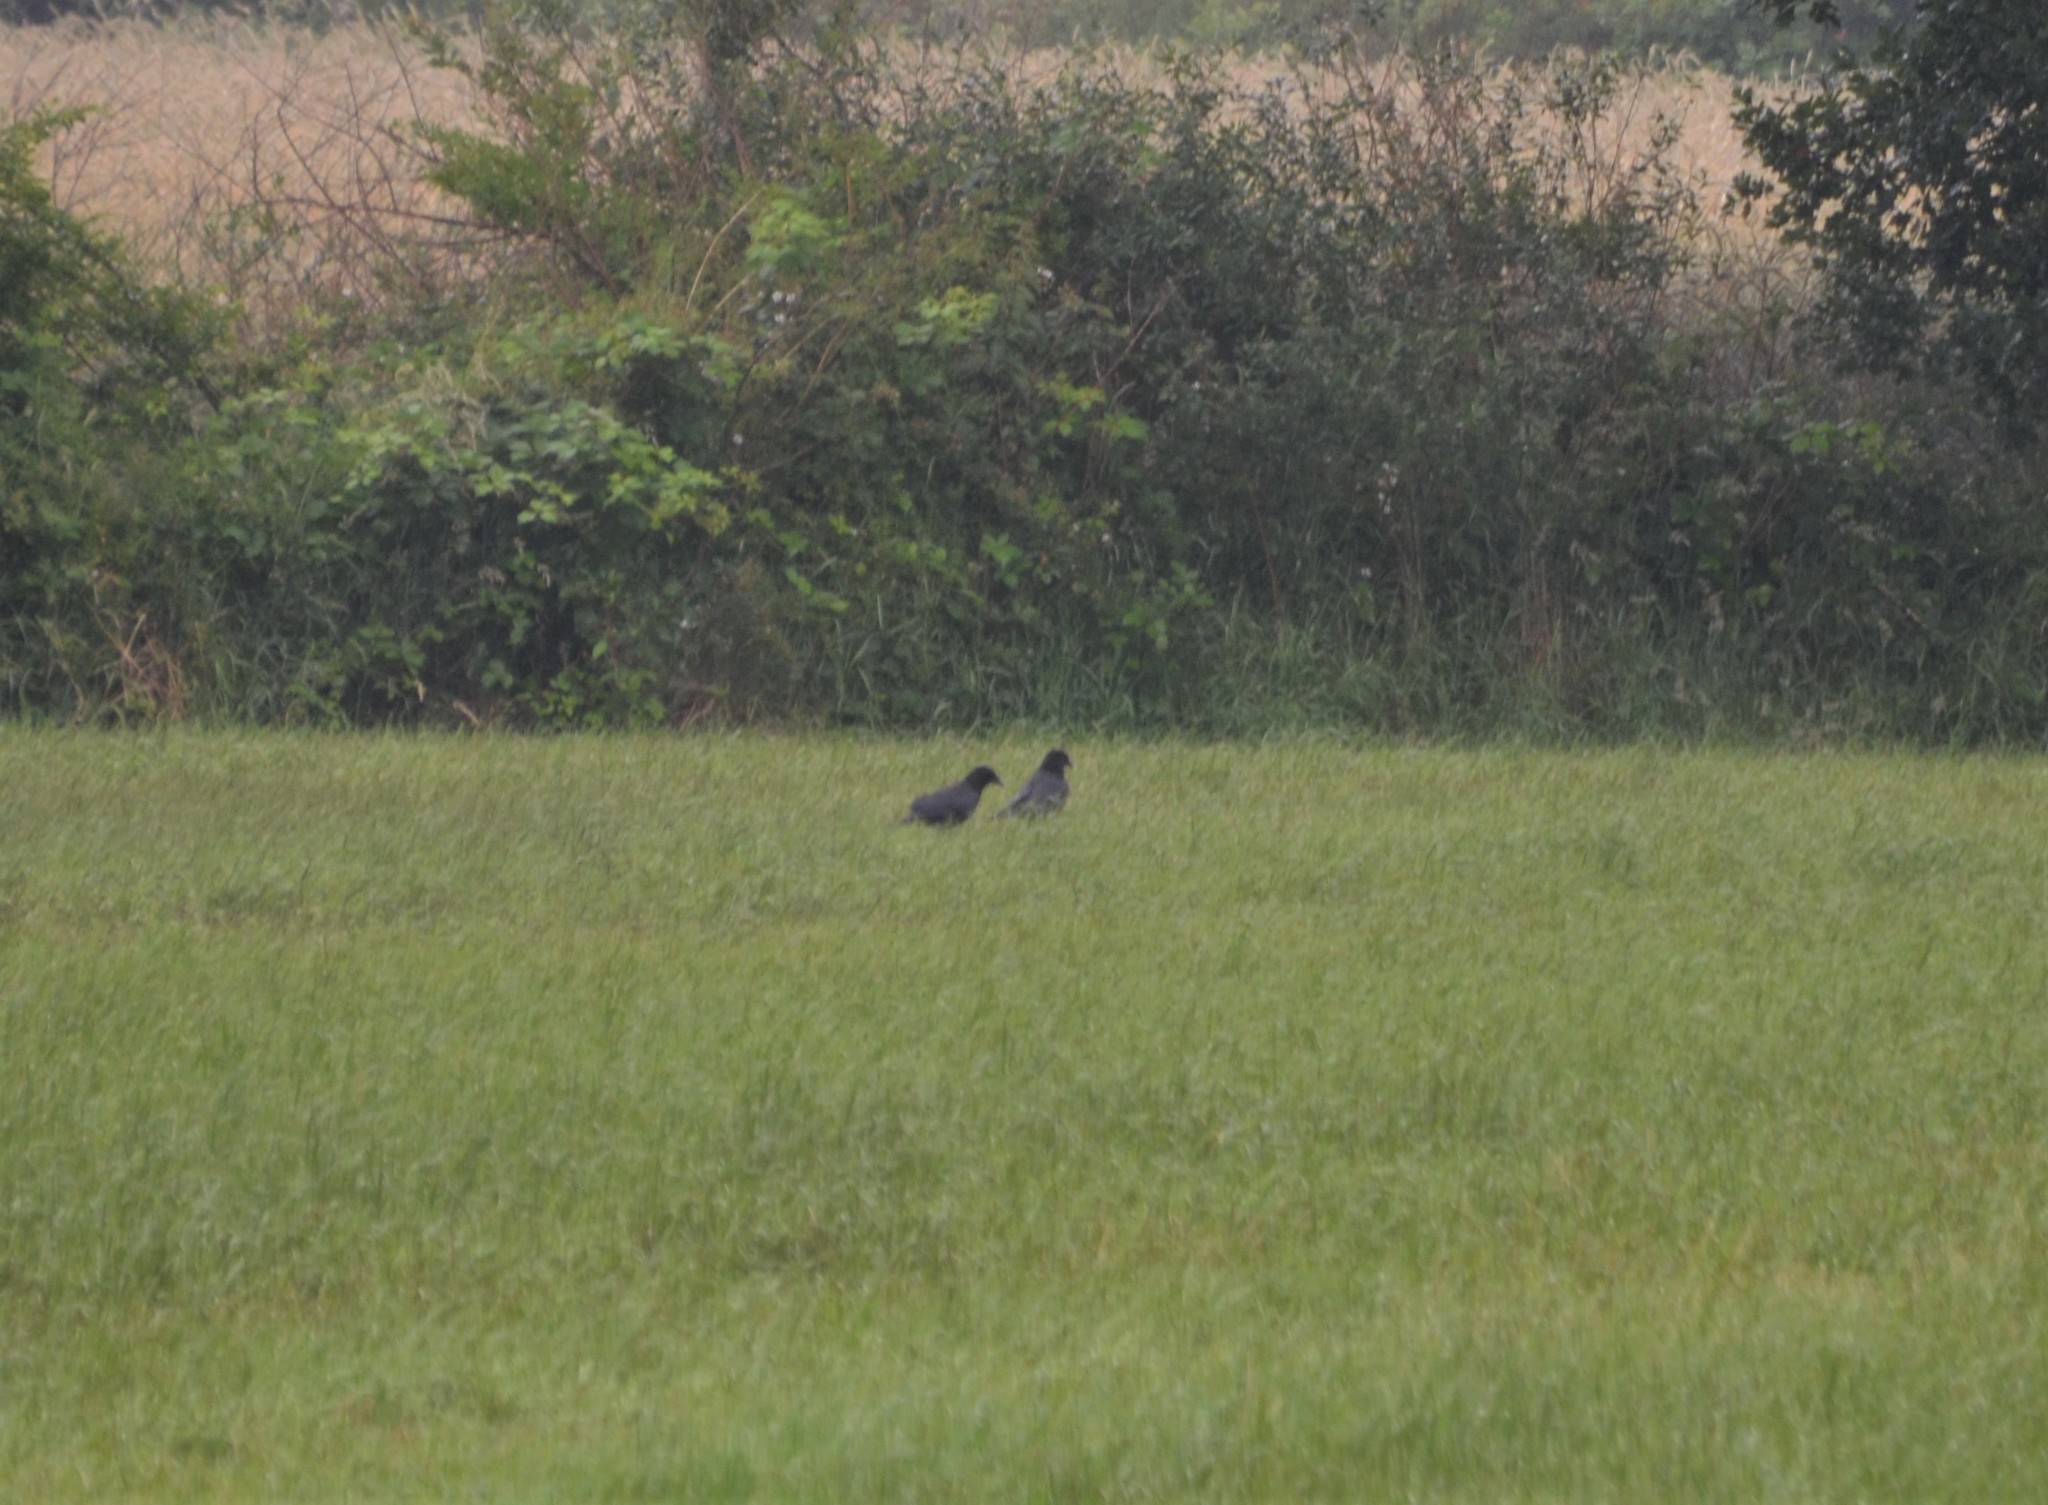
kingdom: Animalia
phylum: Chordata
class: Aves
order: Passeriformes
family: Corvidae
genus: Corvus
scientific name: Corvus corone
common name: Carrion crow
